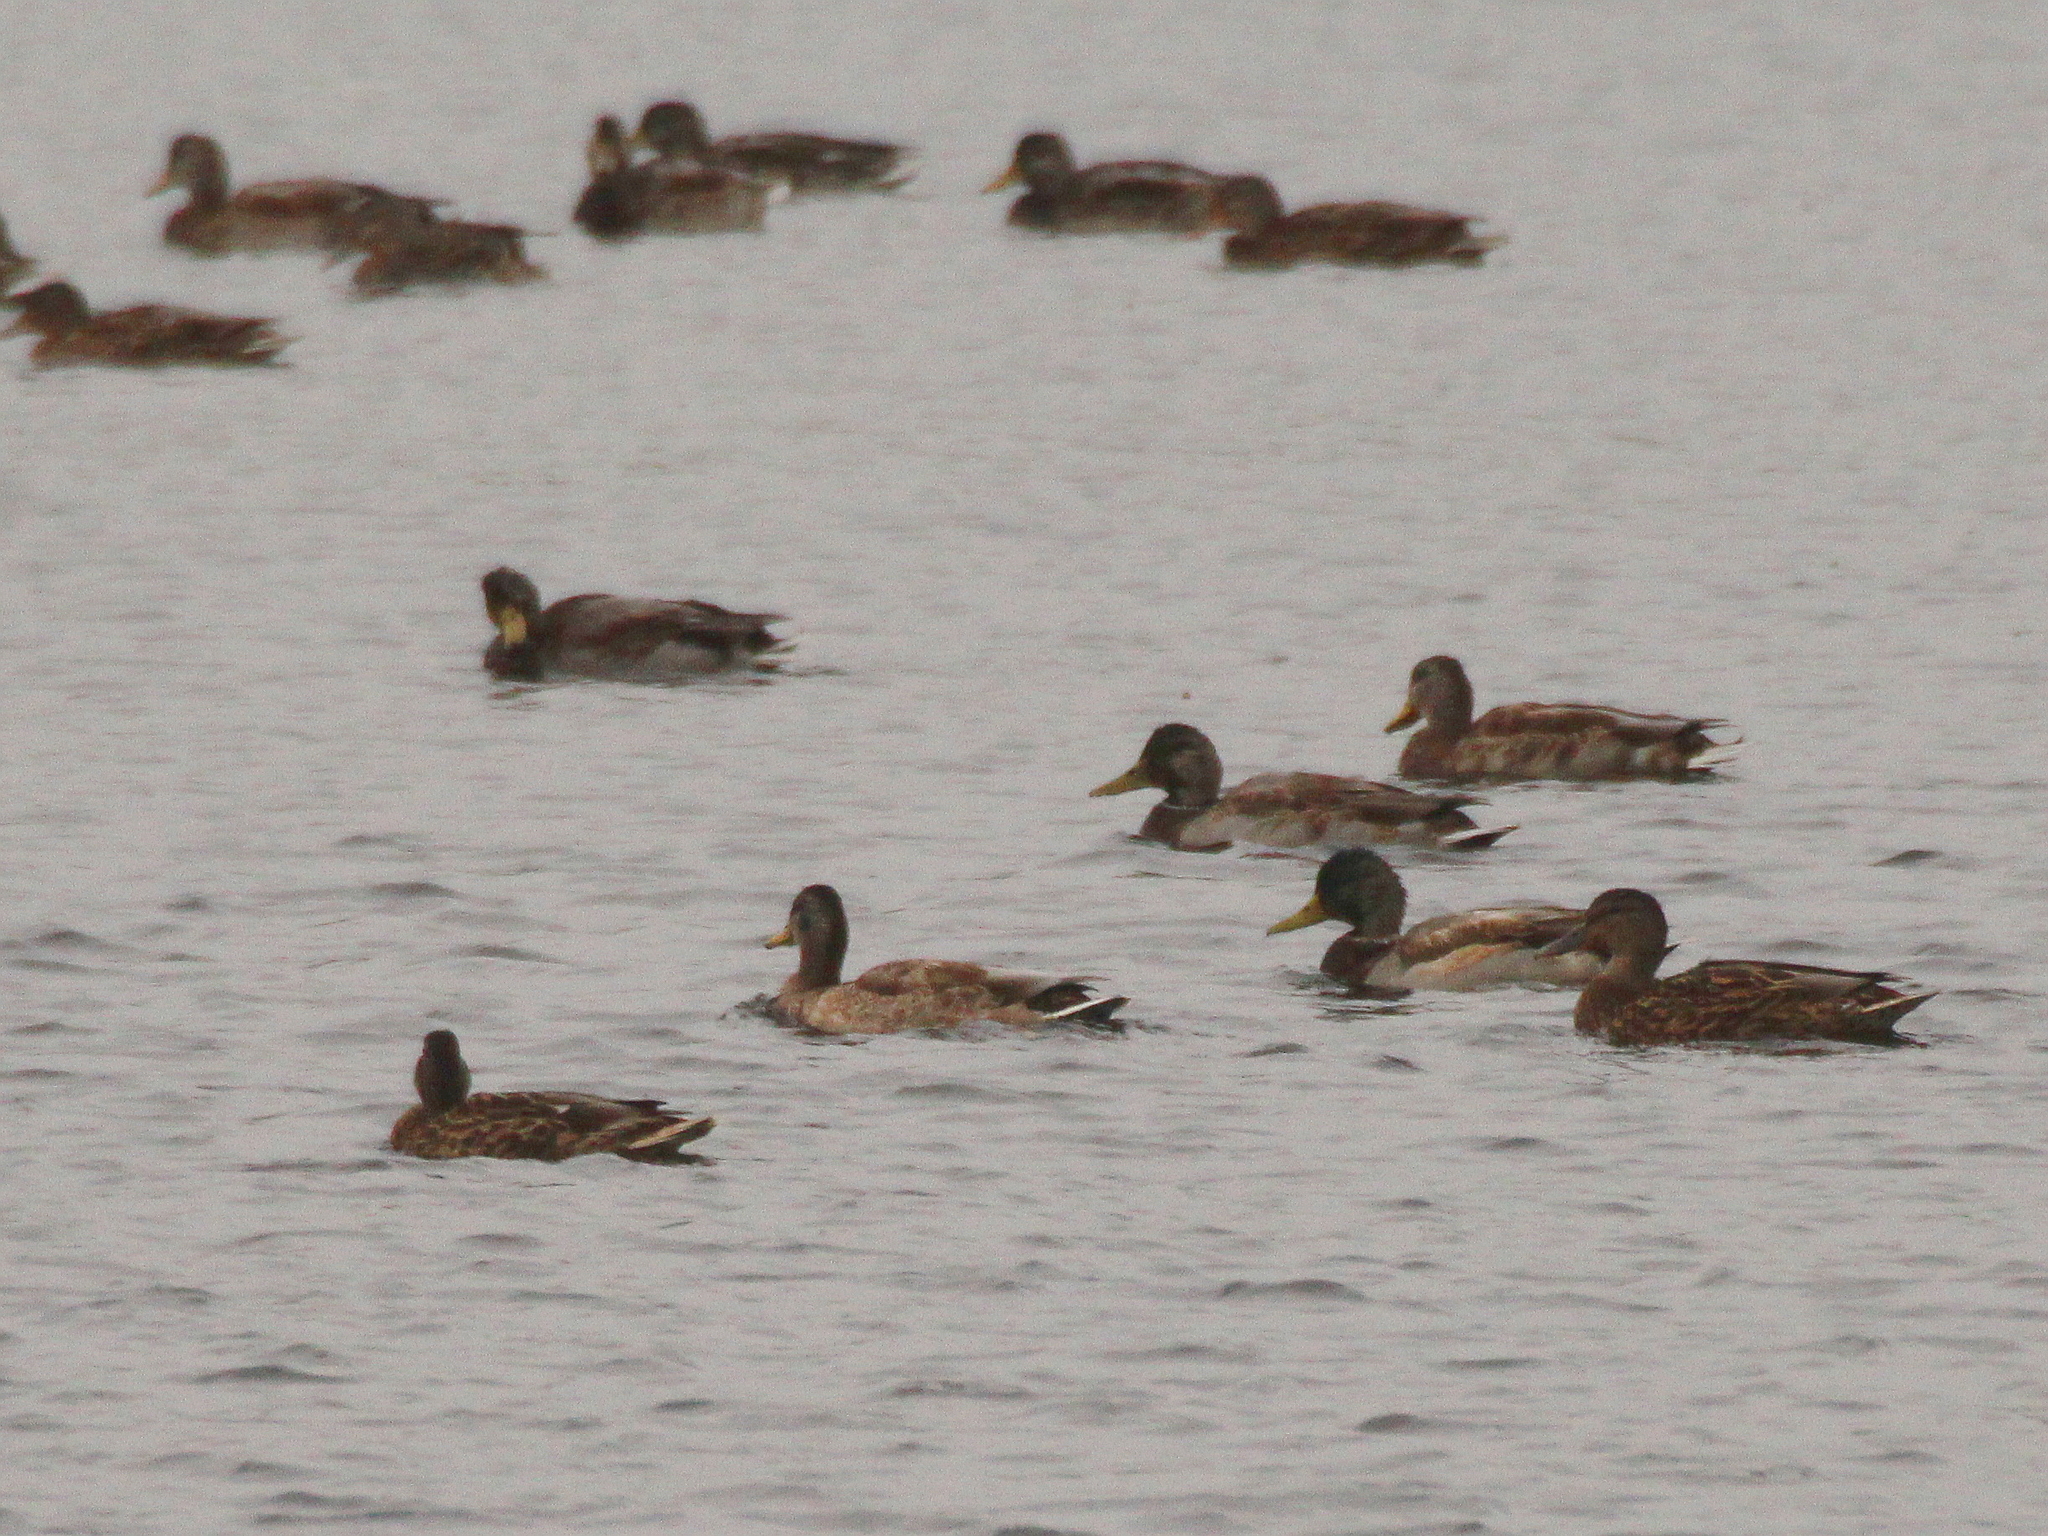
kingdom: Animalia
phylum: Chordata
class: Aves
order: Anseriformes
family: Anatidae
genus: Anas
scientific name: Anas platyrhynchos
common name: Mallard
